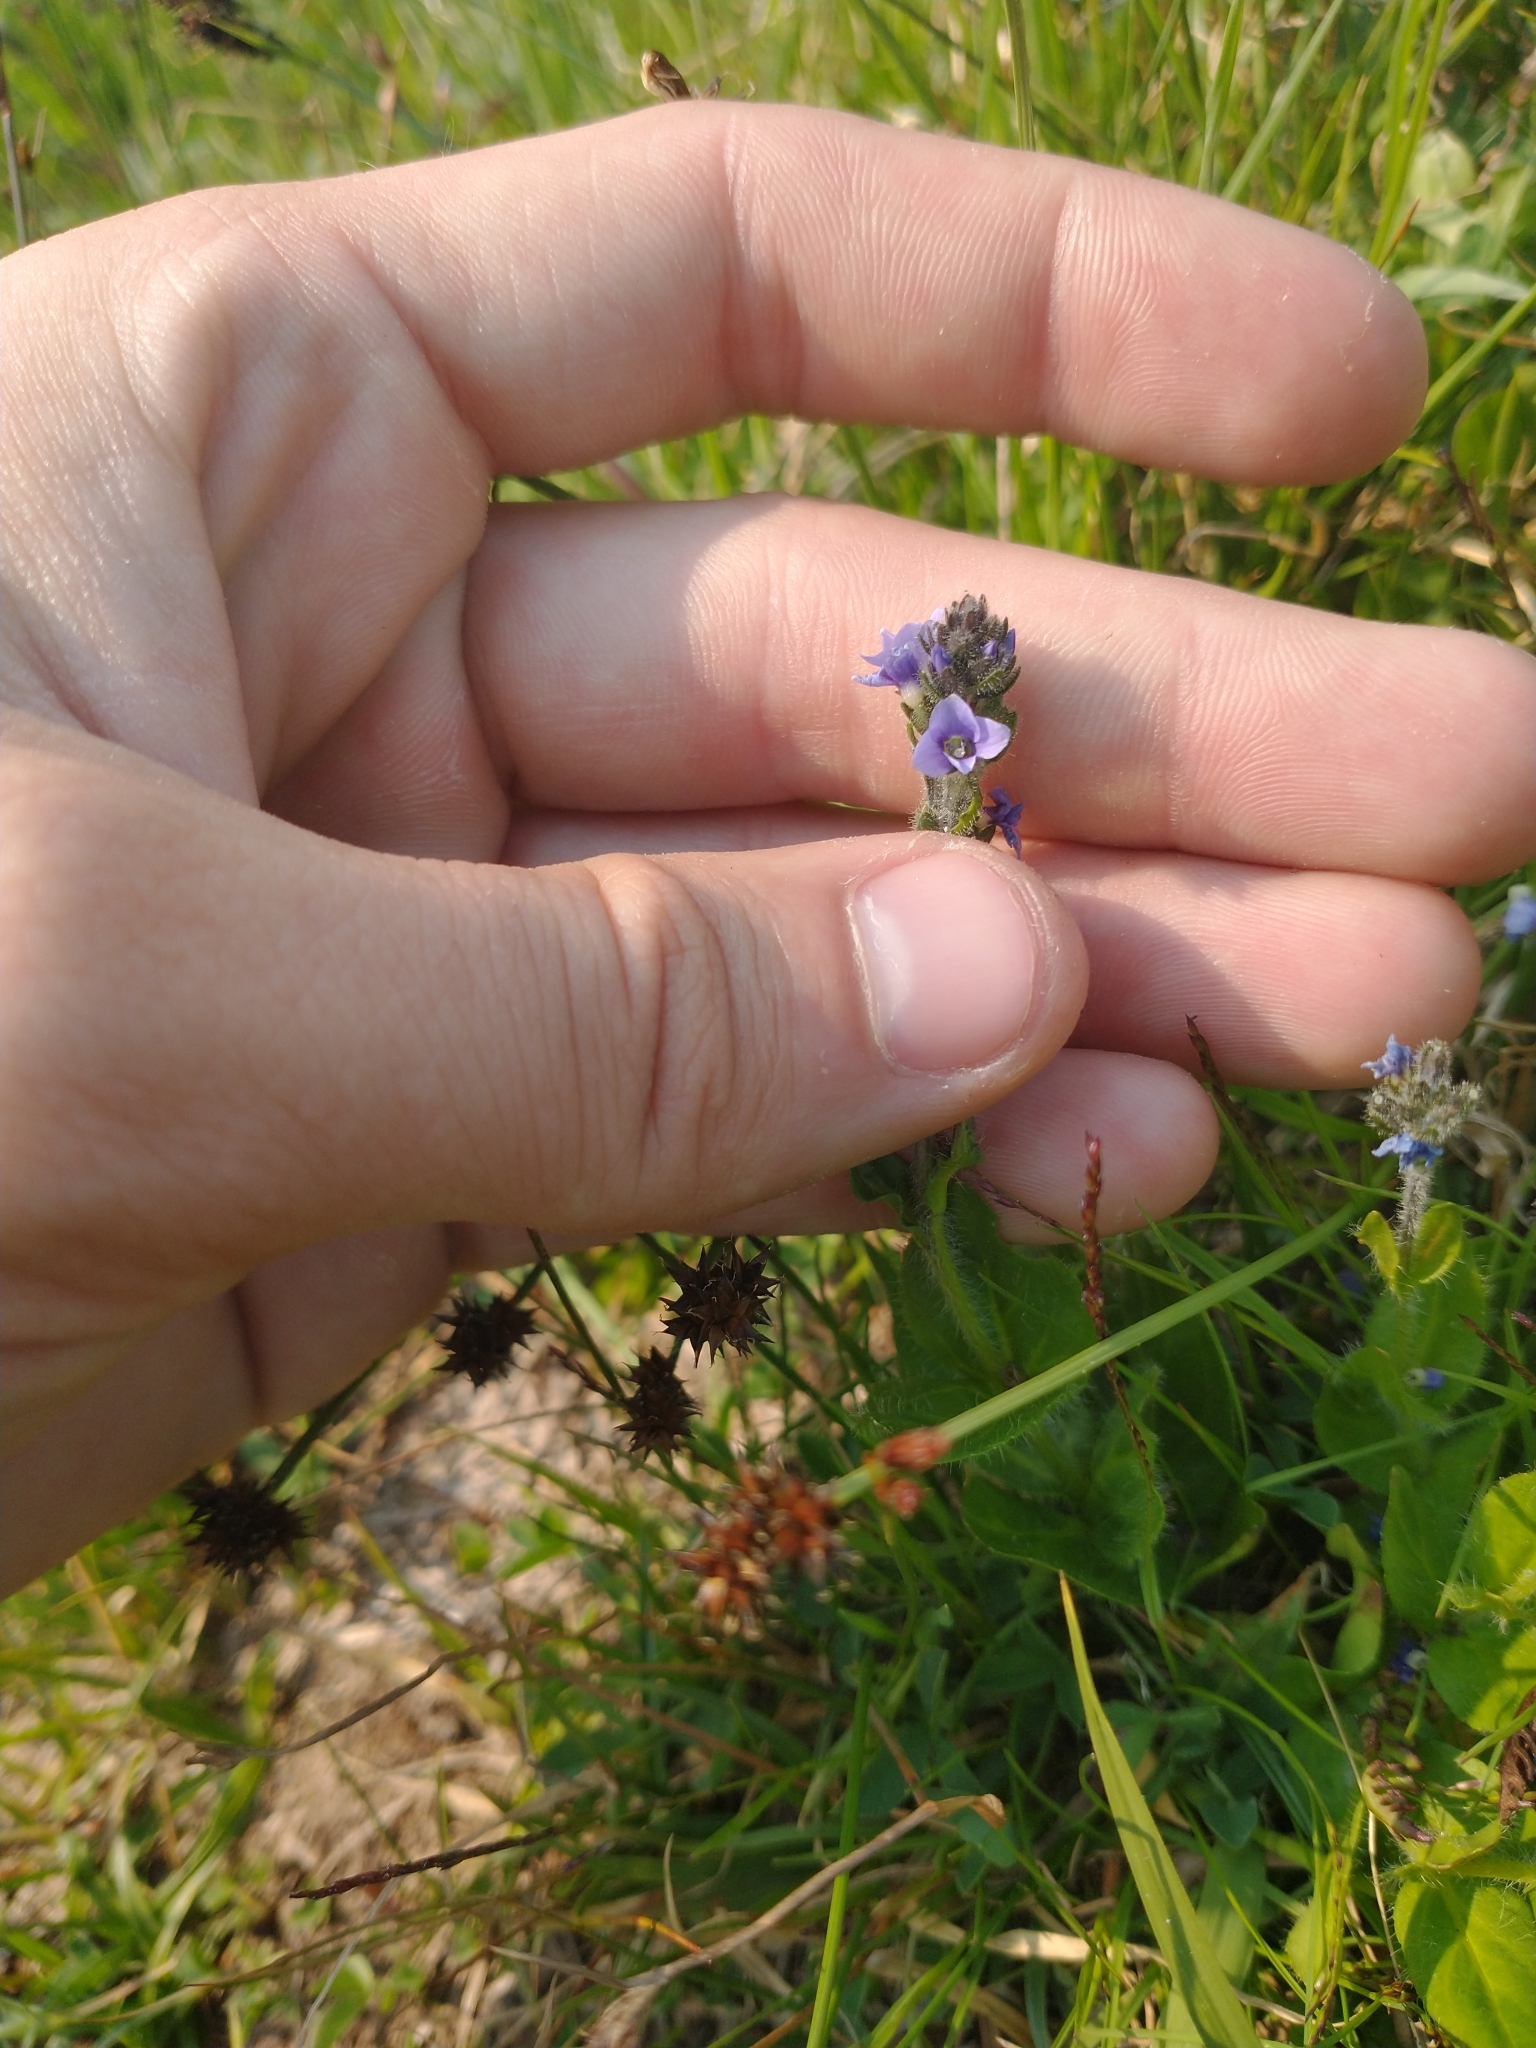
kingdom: Plantae
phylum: Tracheophyta
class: Magnoliopsida
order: Lamiales
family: Plantaginaceae
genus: Veronica
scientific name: Veronica wormskjoldii
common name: American alpine speedwell
